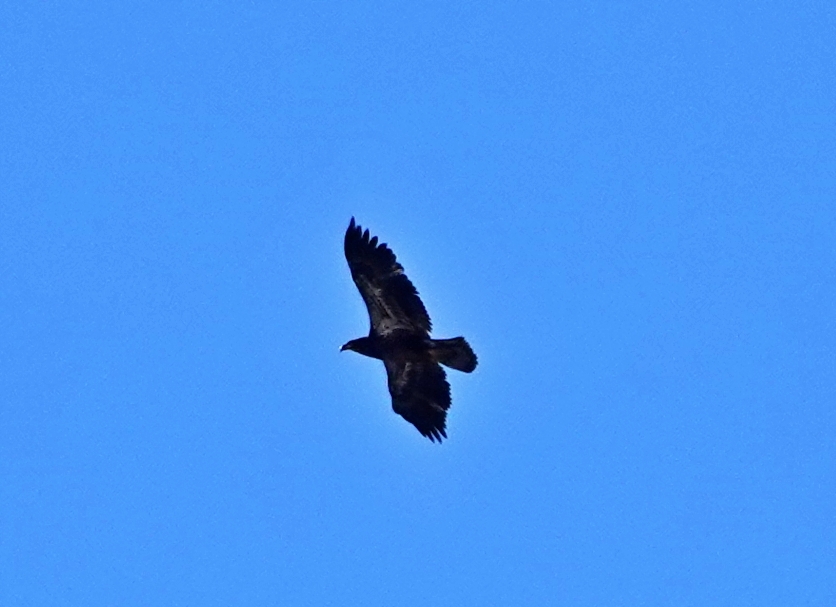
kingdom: Animalia
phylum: Chordata
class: Aves
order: Accipitriformes
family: Accipitridae
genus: Haliaeetus
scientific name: Haliaeetus leucocephalus
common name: Bald eagle
